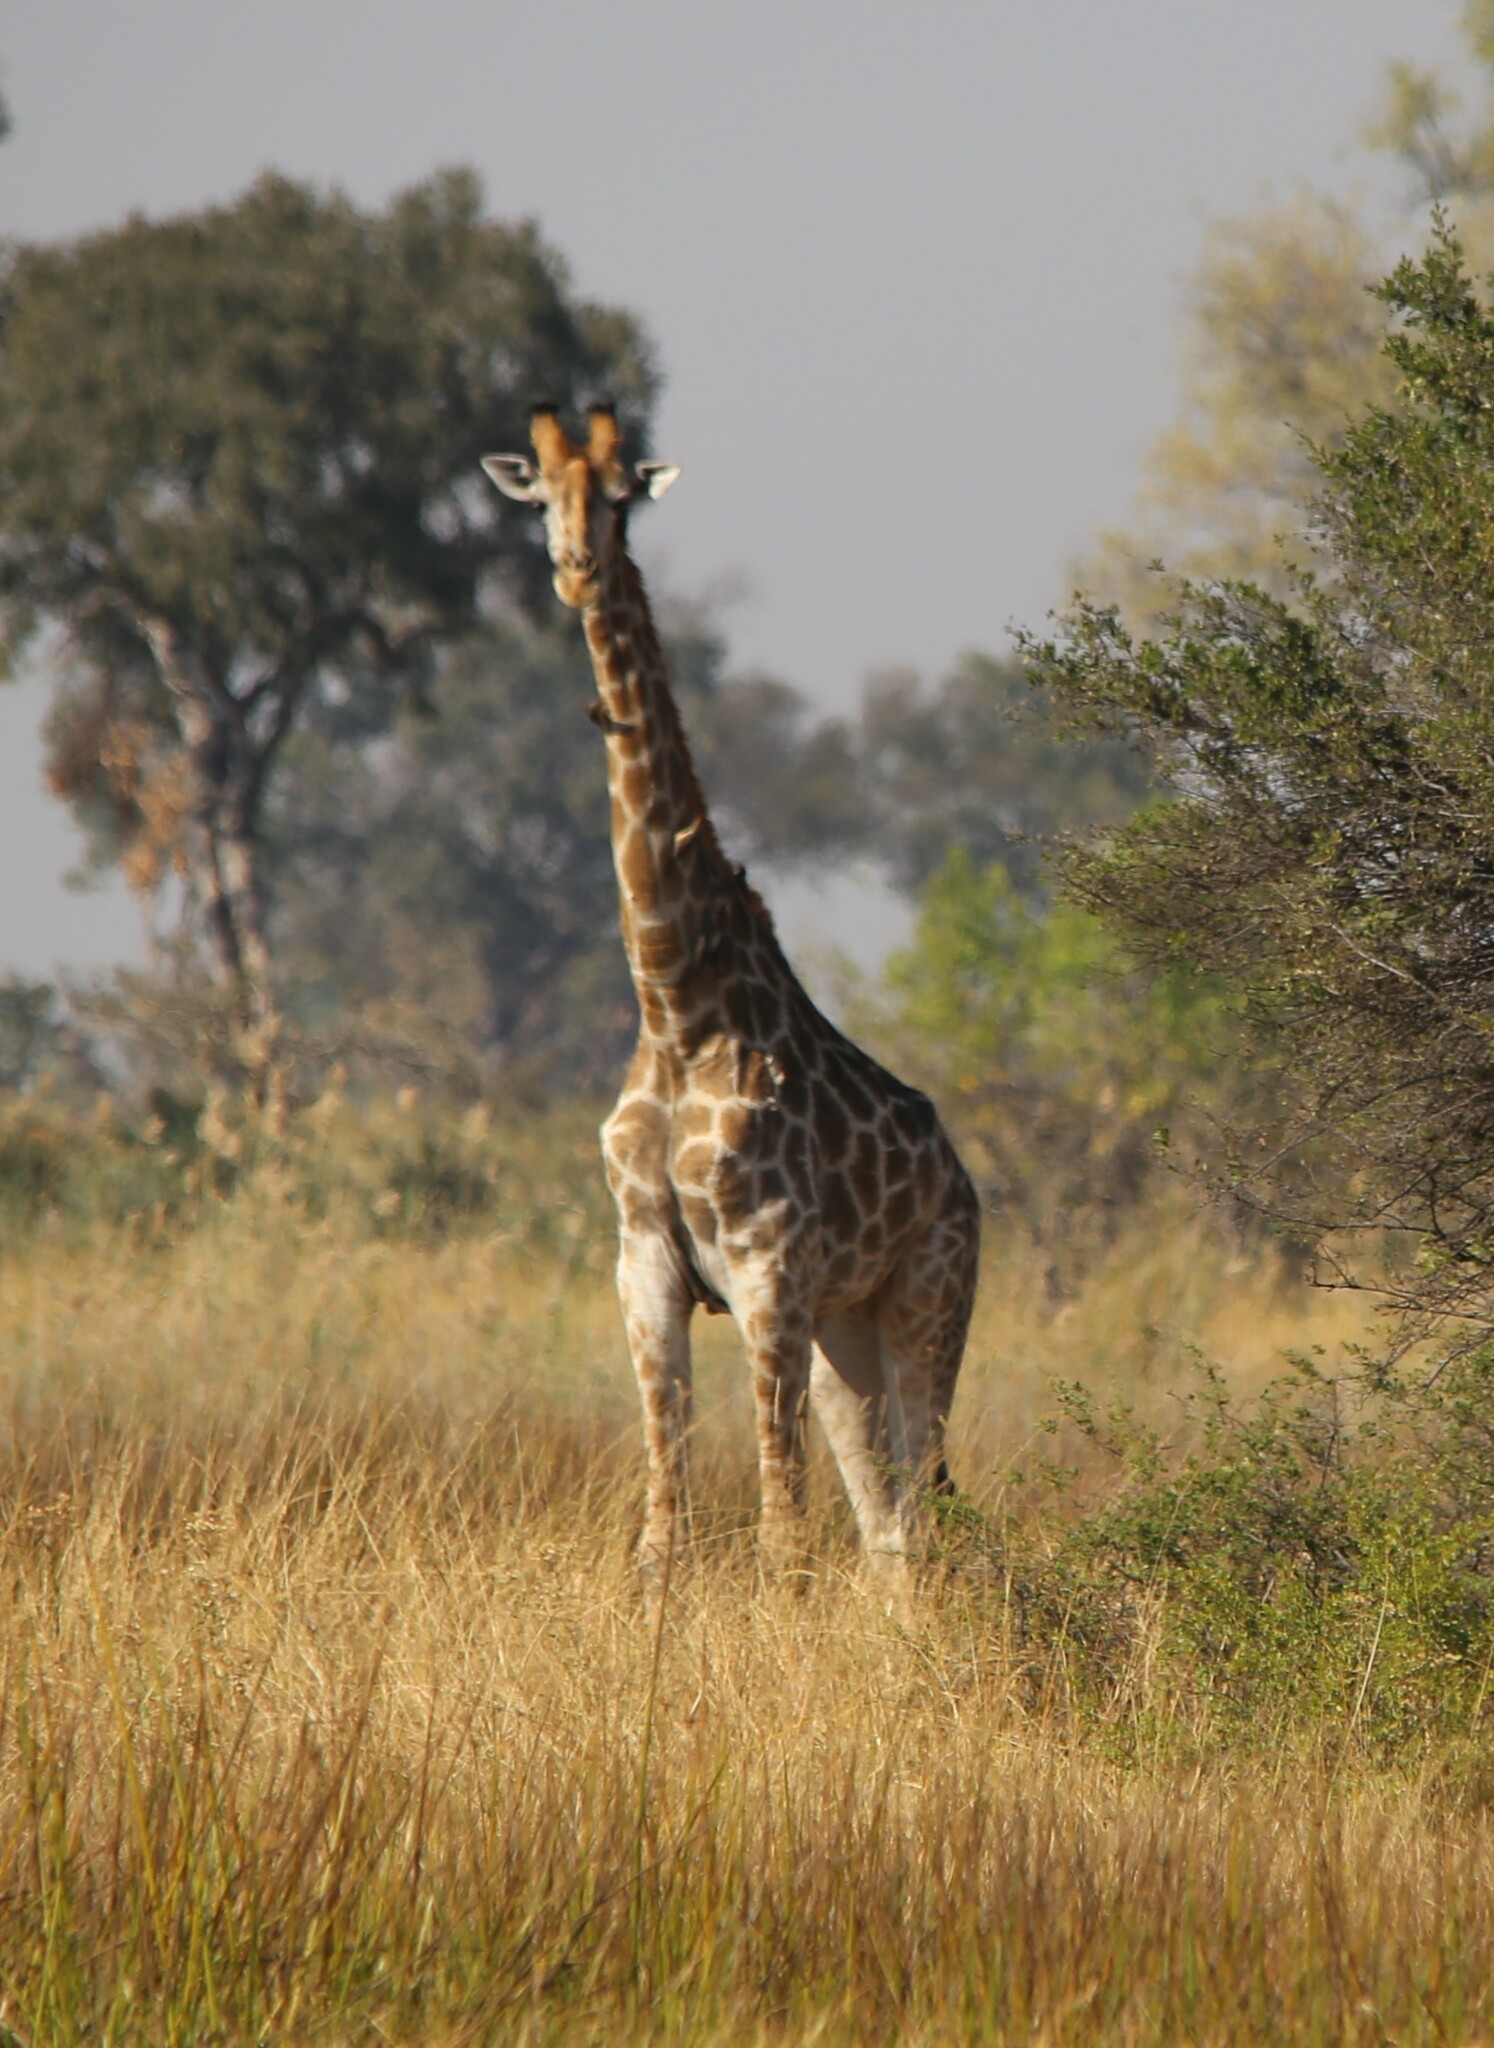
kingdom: Animalia
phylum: Chordata
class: Mammalia
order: Artiodactyla
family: Giraffidae
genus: Giraffa
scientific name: Giraffa giraffa
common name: Southern giraffe
